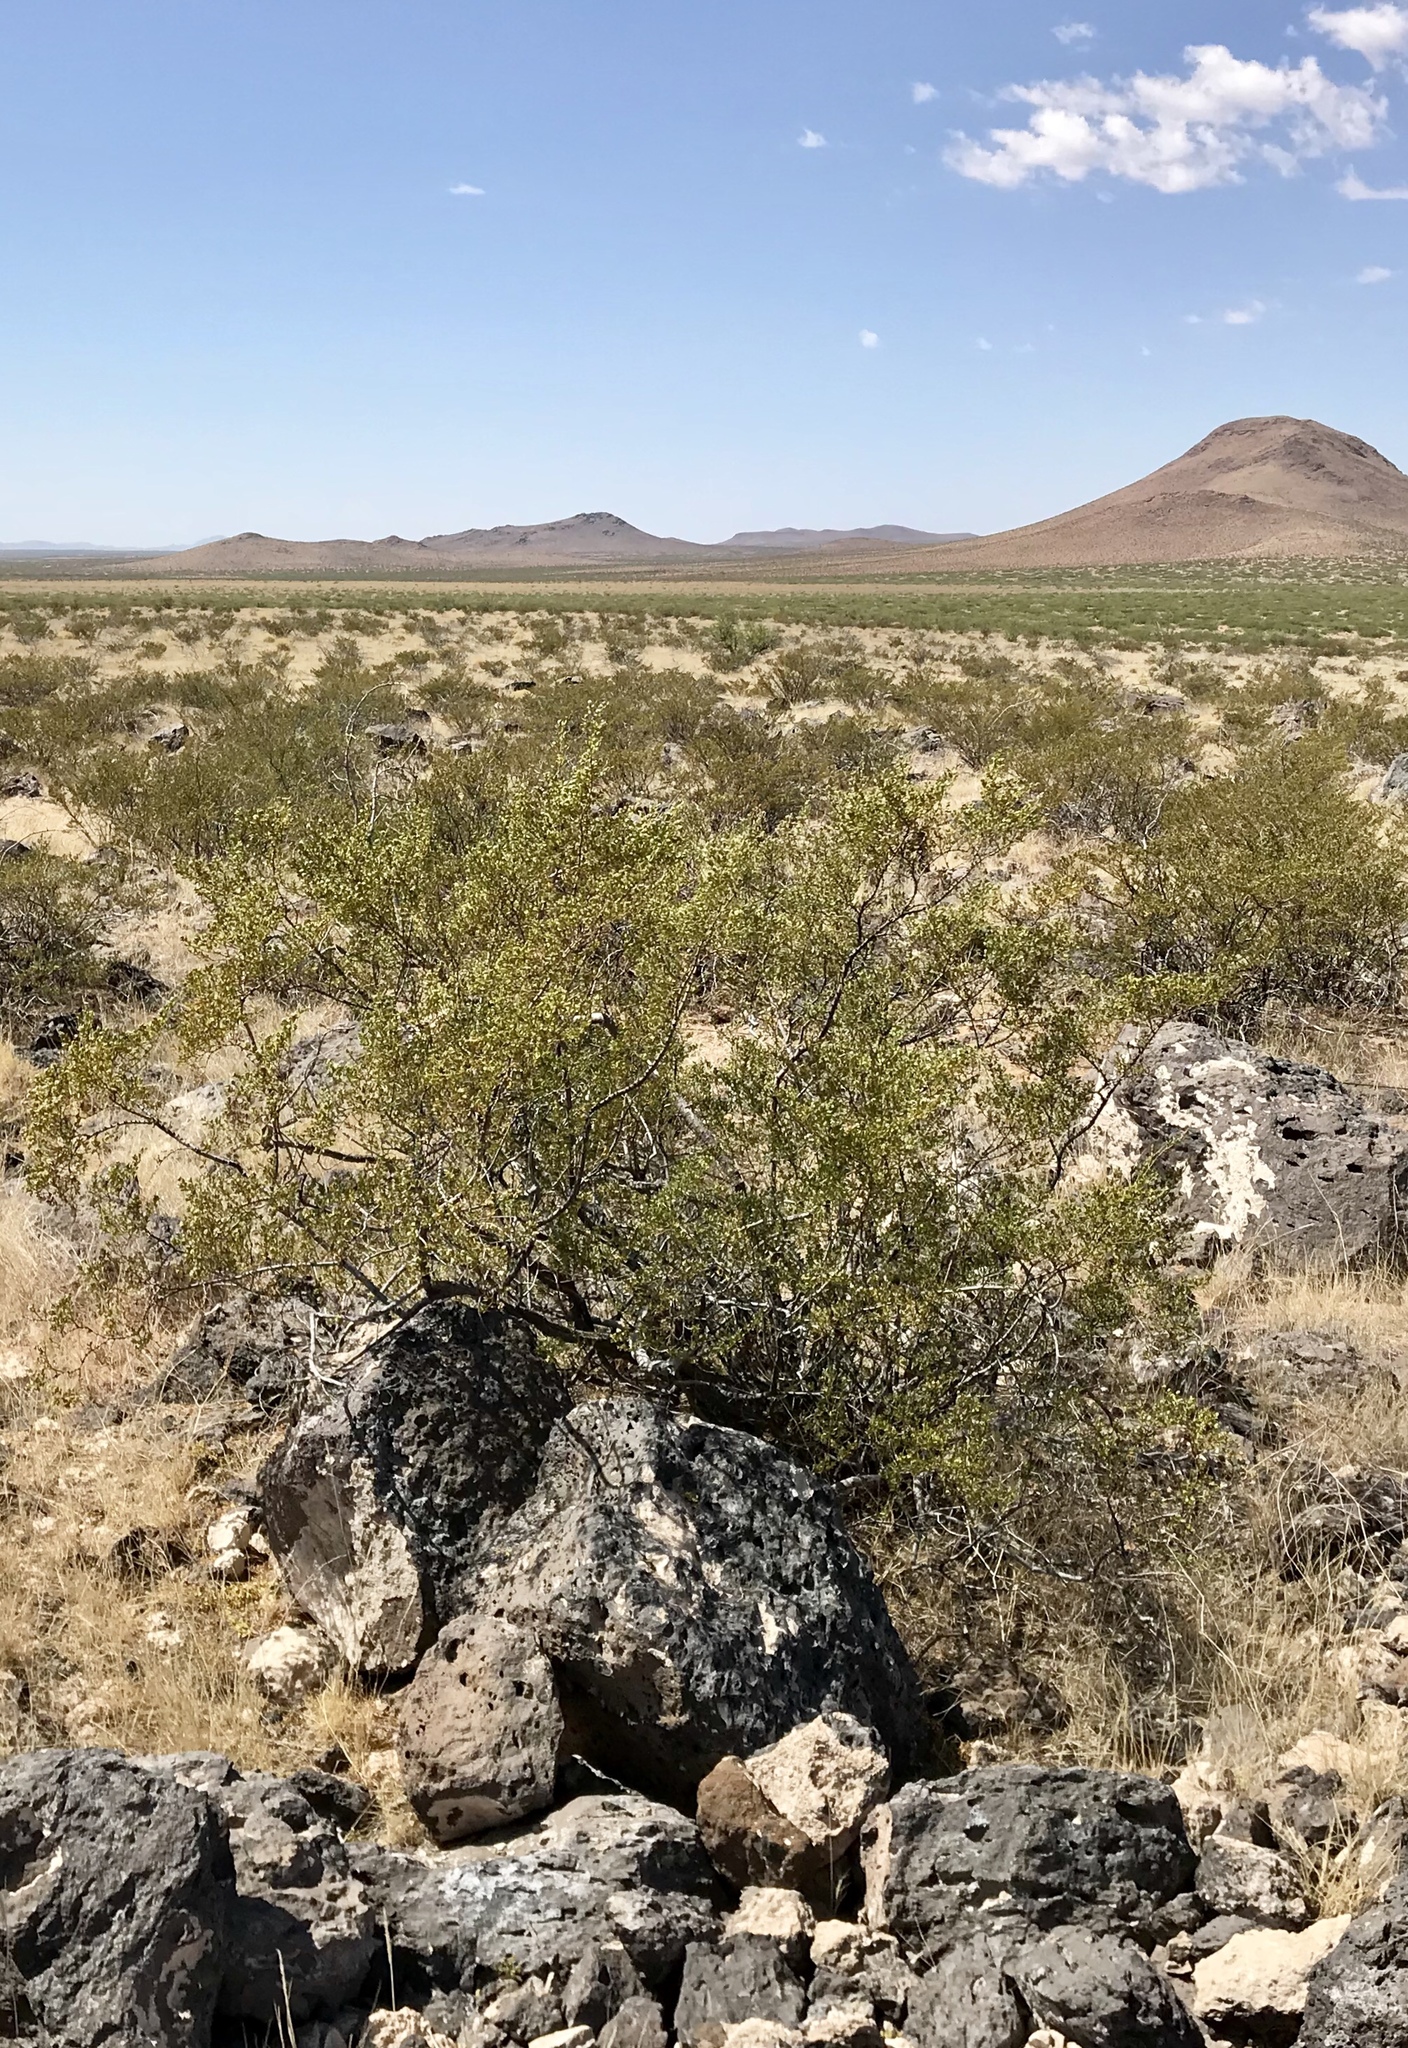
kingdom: Plantae
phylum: Tracheophyta
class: Magnoliopsida
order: Zygophyllales
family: Zygophyllaceae
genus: Larrea
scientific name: Larrea tridentata
